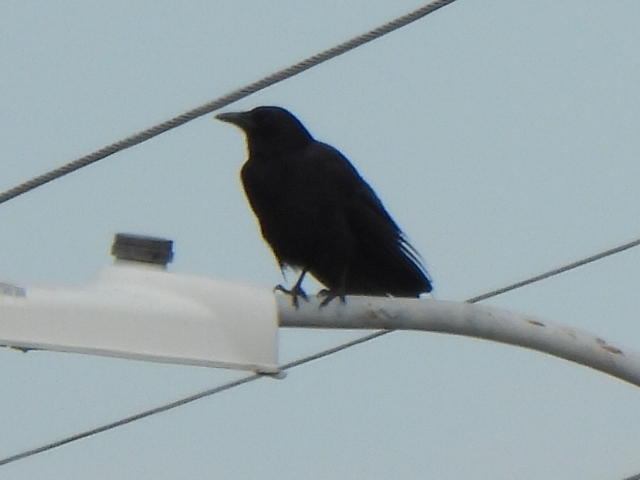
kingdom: Animalia
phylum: Chordata
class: Aves
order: Passeriformes
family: Corvidae
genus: Corvus
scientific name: Corvus brachyrhynchos
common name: American crow
